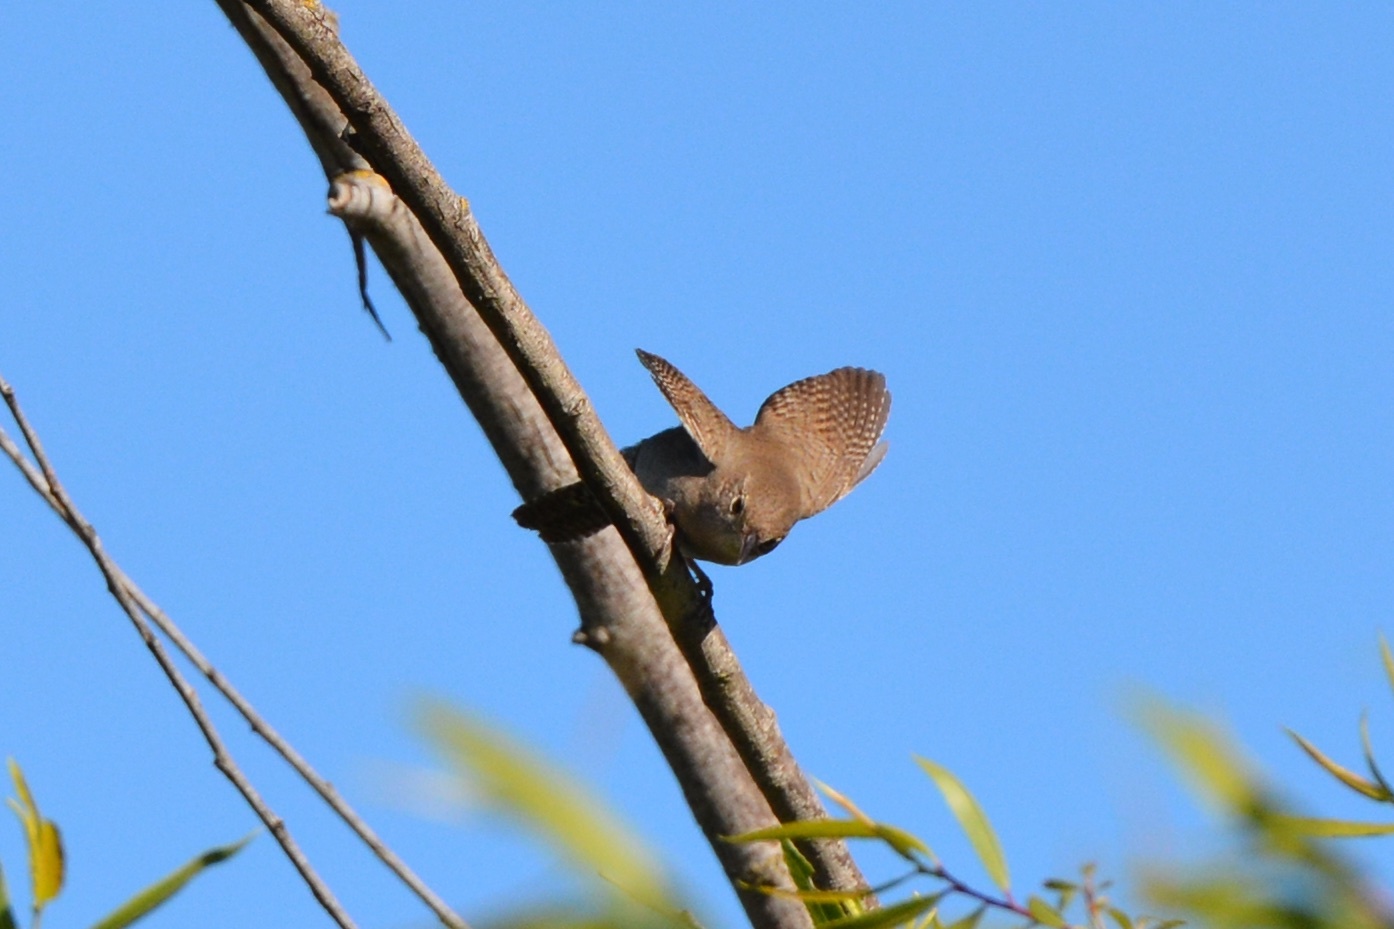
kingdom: Animalia
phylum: Chordata
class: Aves
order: Passeriformes
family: Troglodytidae
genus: Troglodytes
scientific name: Troglodytes aedon
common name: House wren
